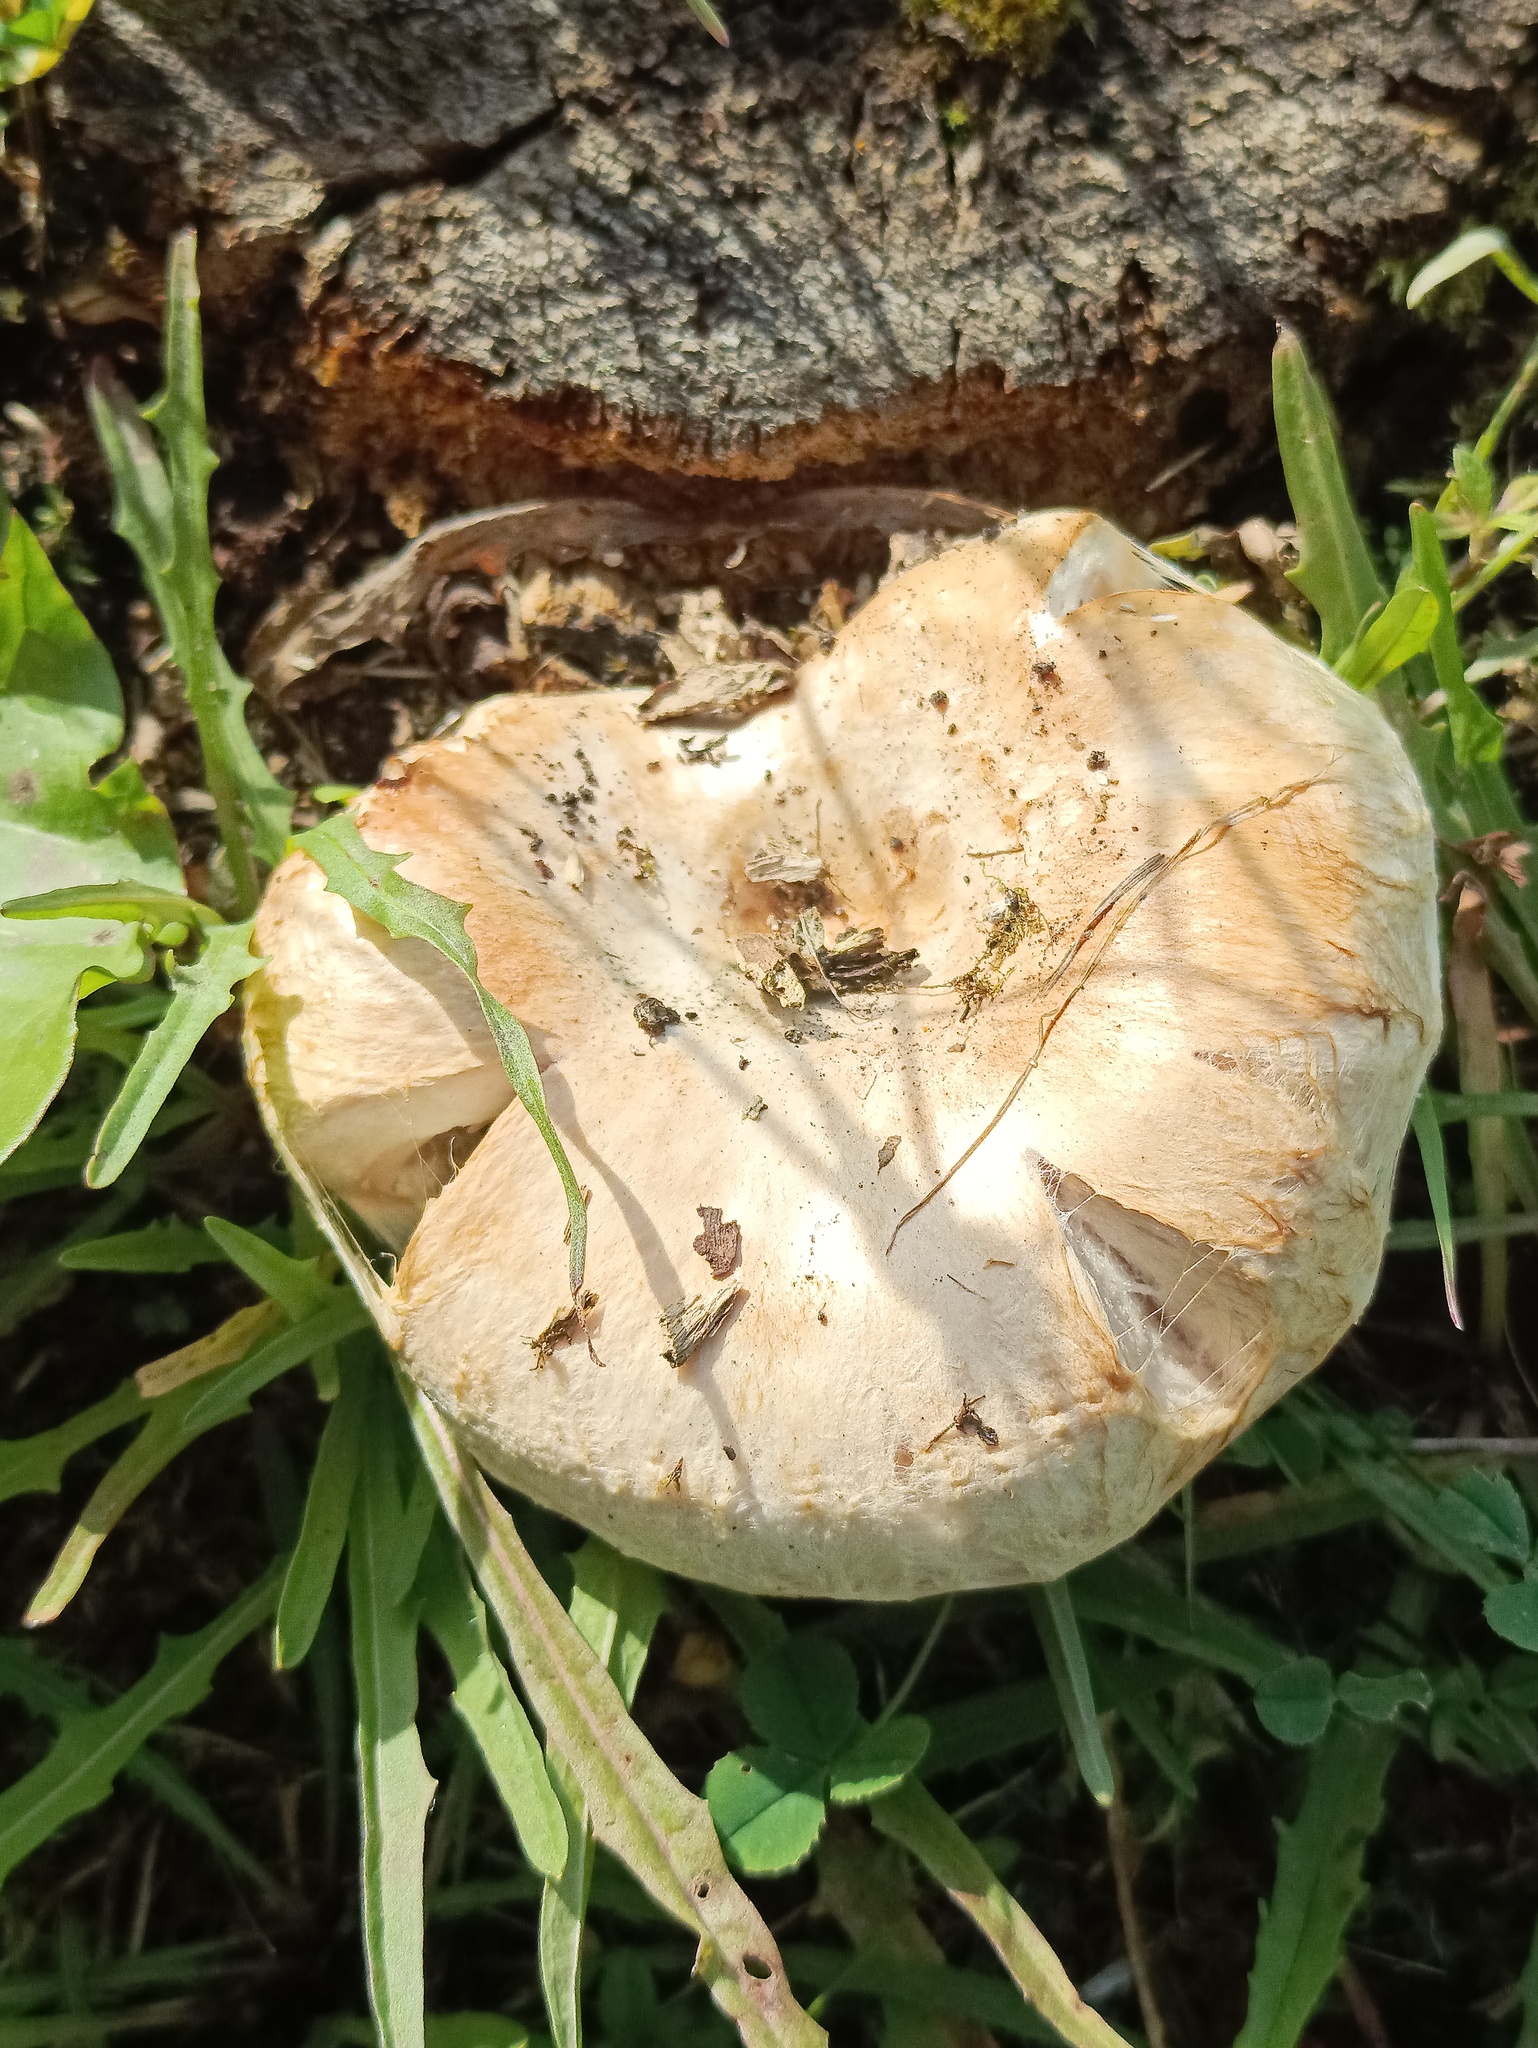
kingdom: Fungi
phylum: Basidiomycota
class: Agaricomycetes
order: Russulales
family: Russulaceae
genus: Lactarius
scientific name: Lactarius pubescens
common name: Bearded milkcap
